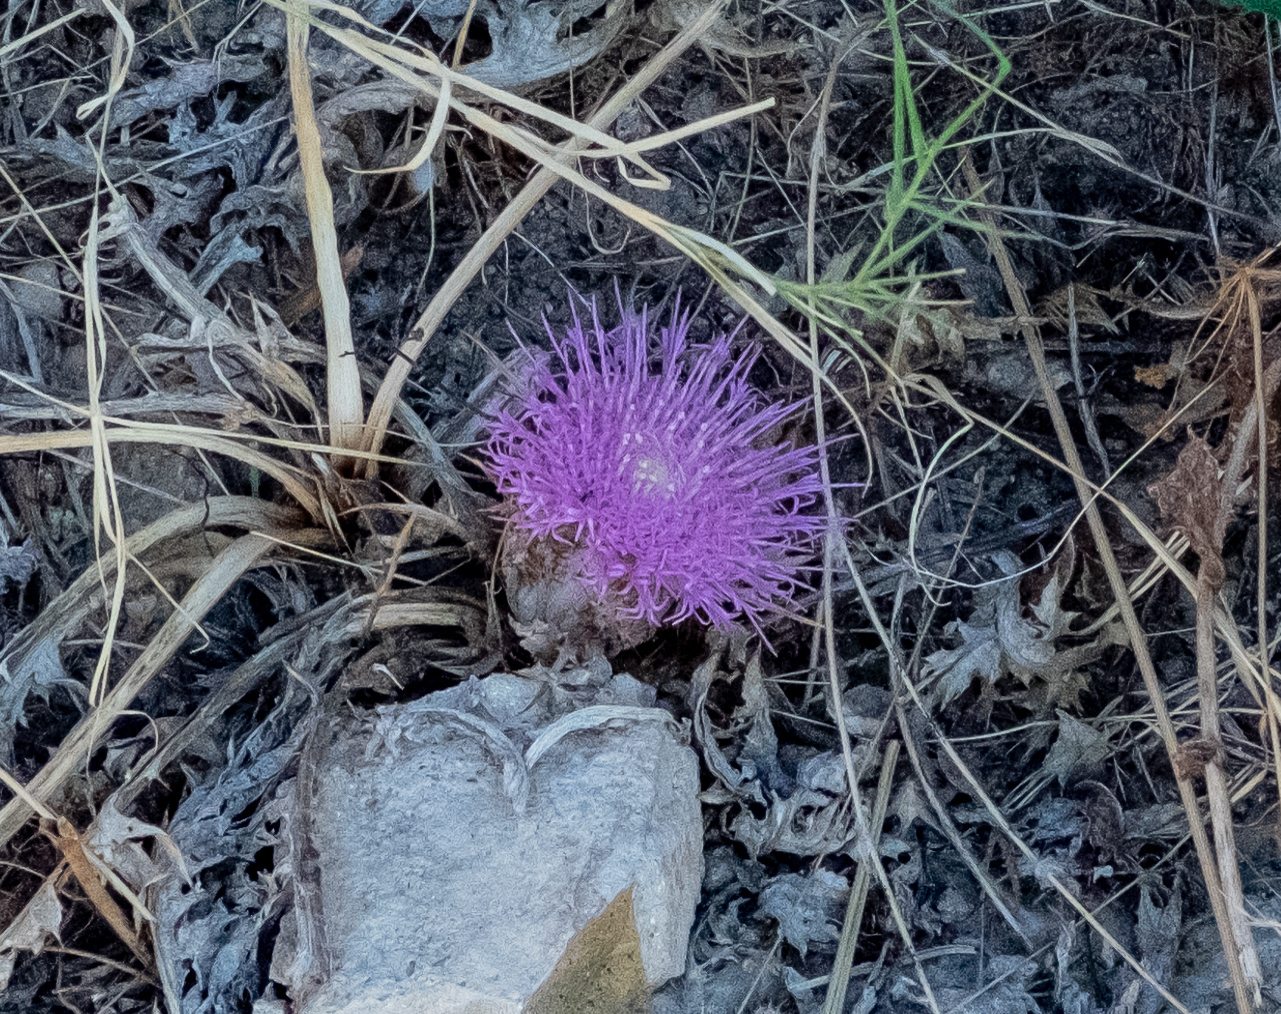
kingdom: Plantae
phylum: Tracheophyta
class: Magnoliopsida
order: Asterales
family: Asteraceae
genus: Chamaeleon
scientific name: Chamaeleon gummifer
